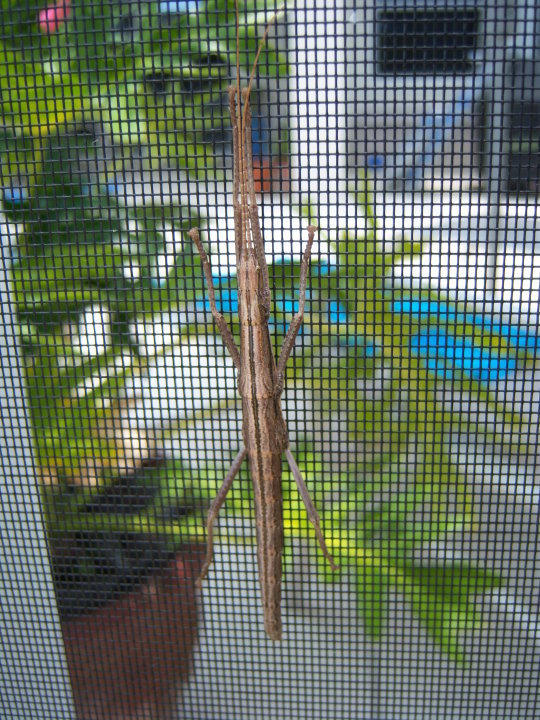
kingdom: Animalia
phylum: Arthropoda
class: Insecta
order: Phasmida
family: Pseudophasmatidae
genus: Anisomorpha
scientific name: Anisomorpha buprestoides
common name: Florida stick insect
